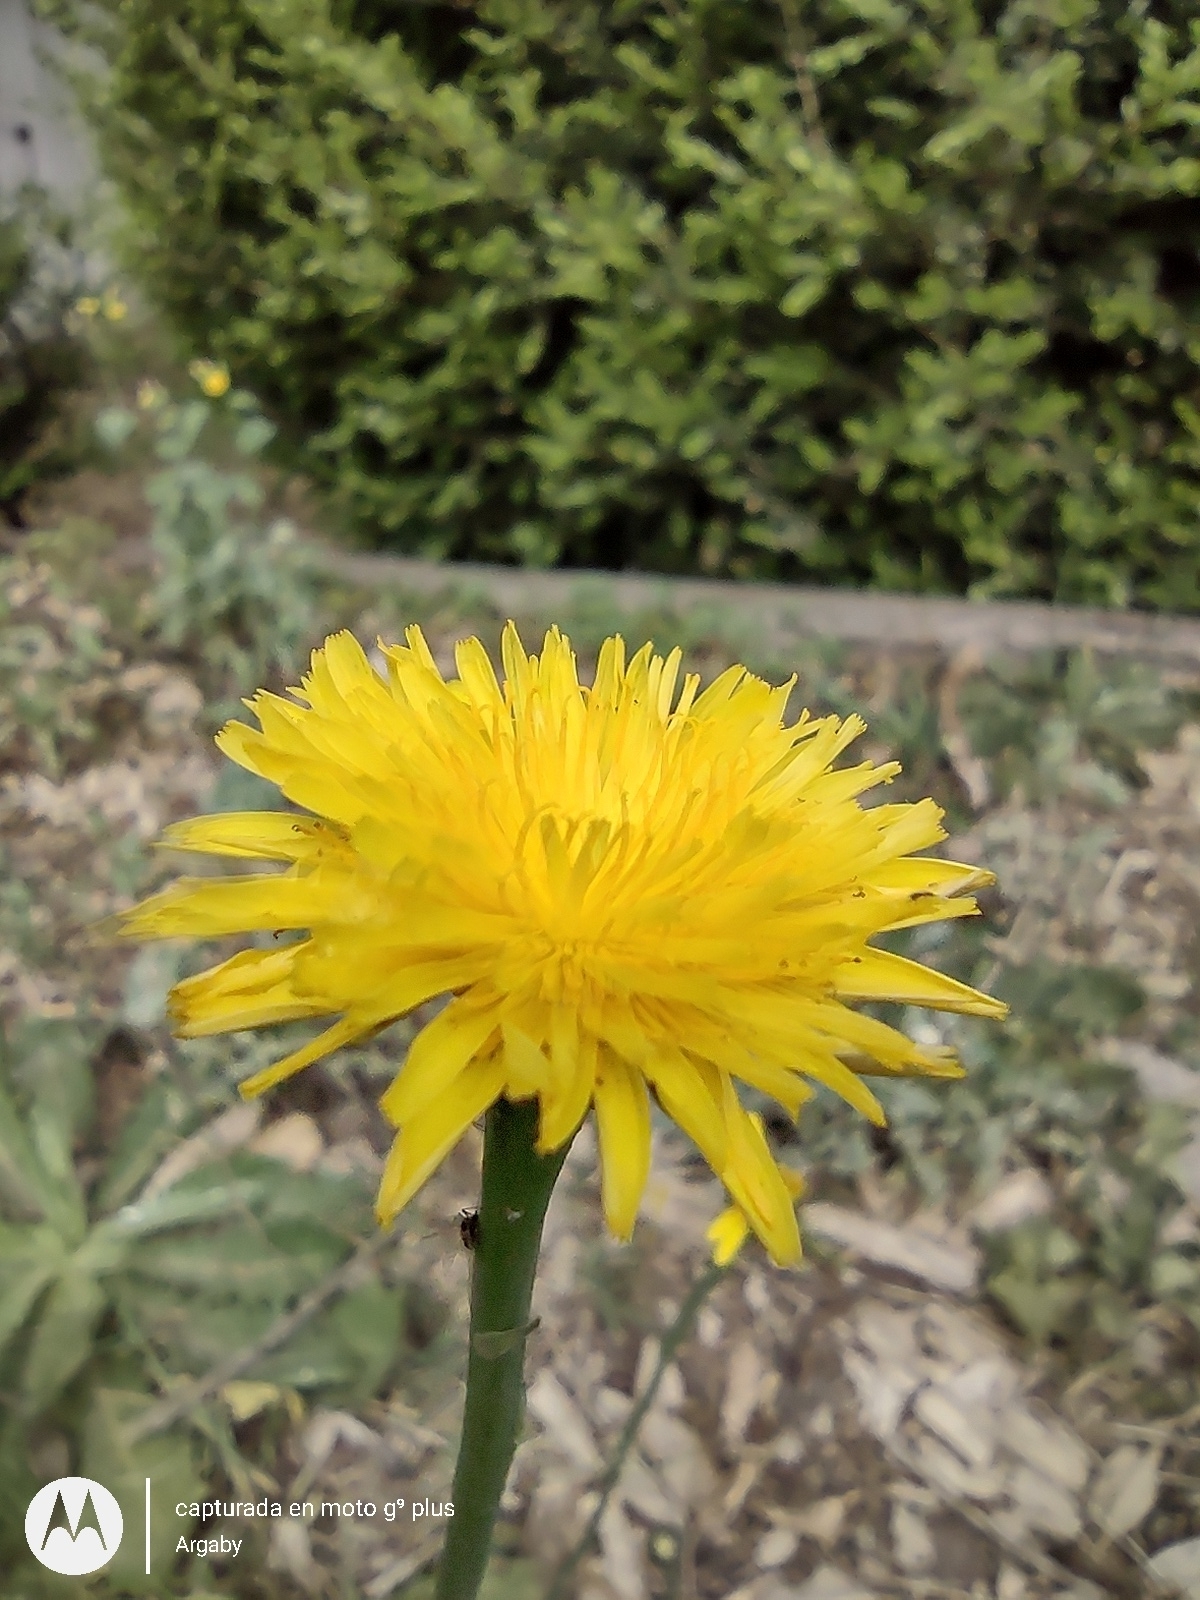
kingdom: Plantae
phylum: Tracheophyta
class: Magnoliopsida
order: Asterales
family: Asteraceae
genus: Hypochaeris
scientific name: Hypochaeris radicata
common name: Flatweed
